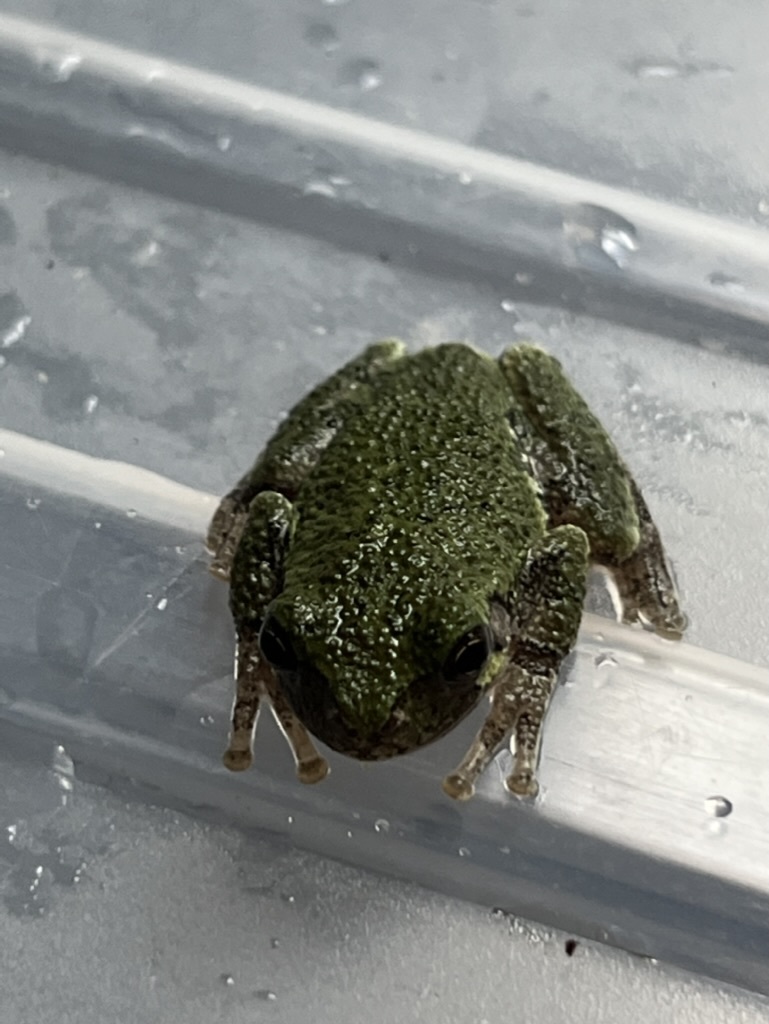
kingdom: Animalia
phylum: Chordata
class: Amphibia
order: Anura
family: Hylidae
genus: Dryophytes
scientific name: Dryophytes chrysoscelis
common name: Cope's gray treefrog
